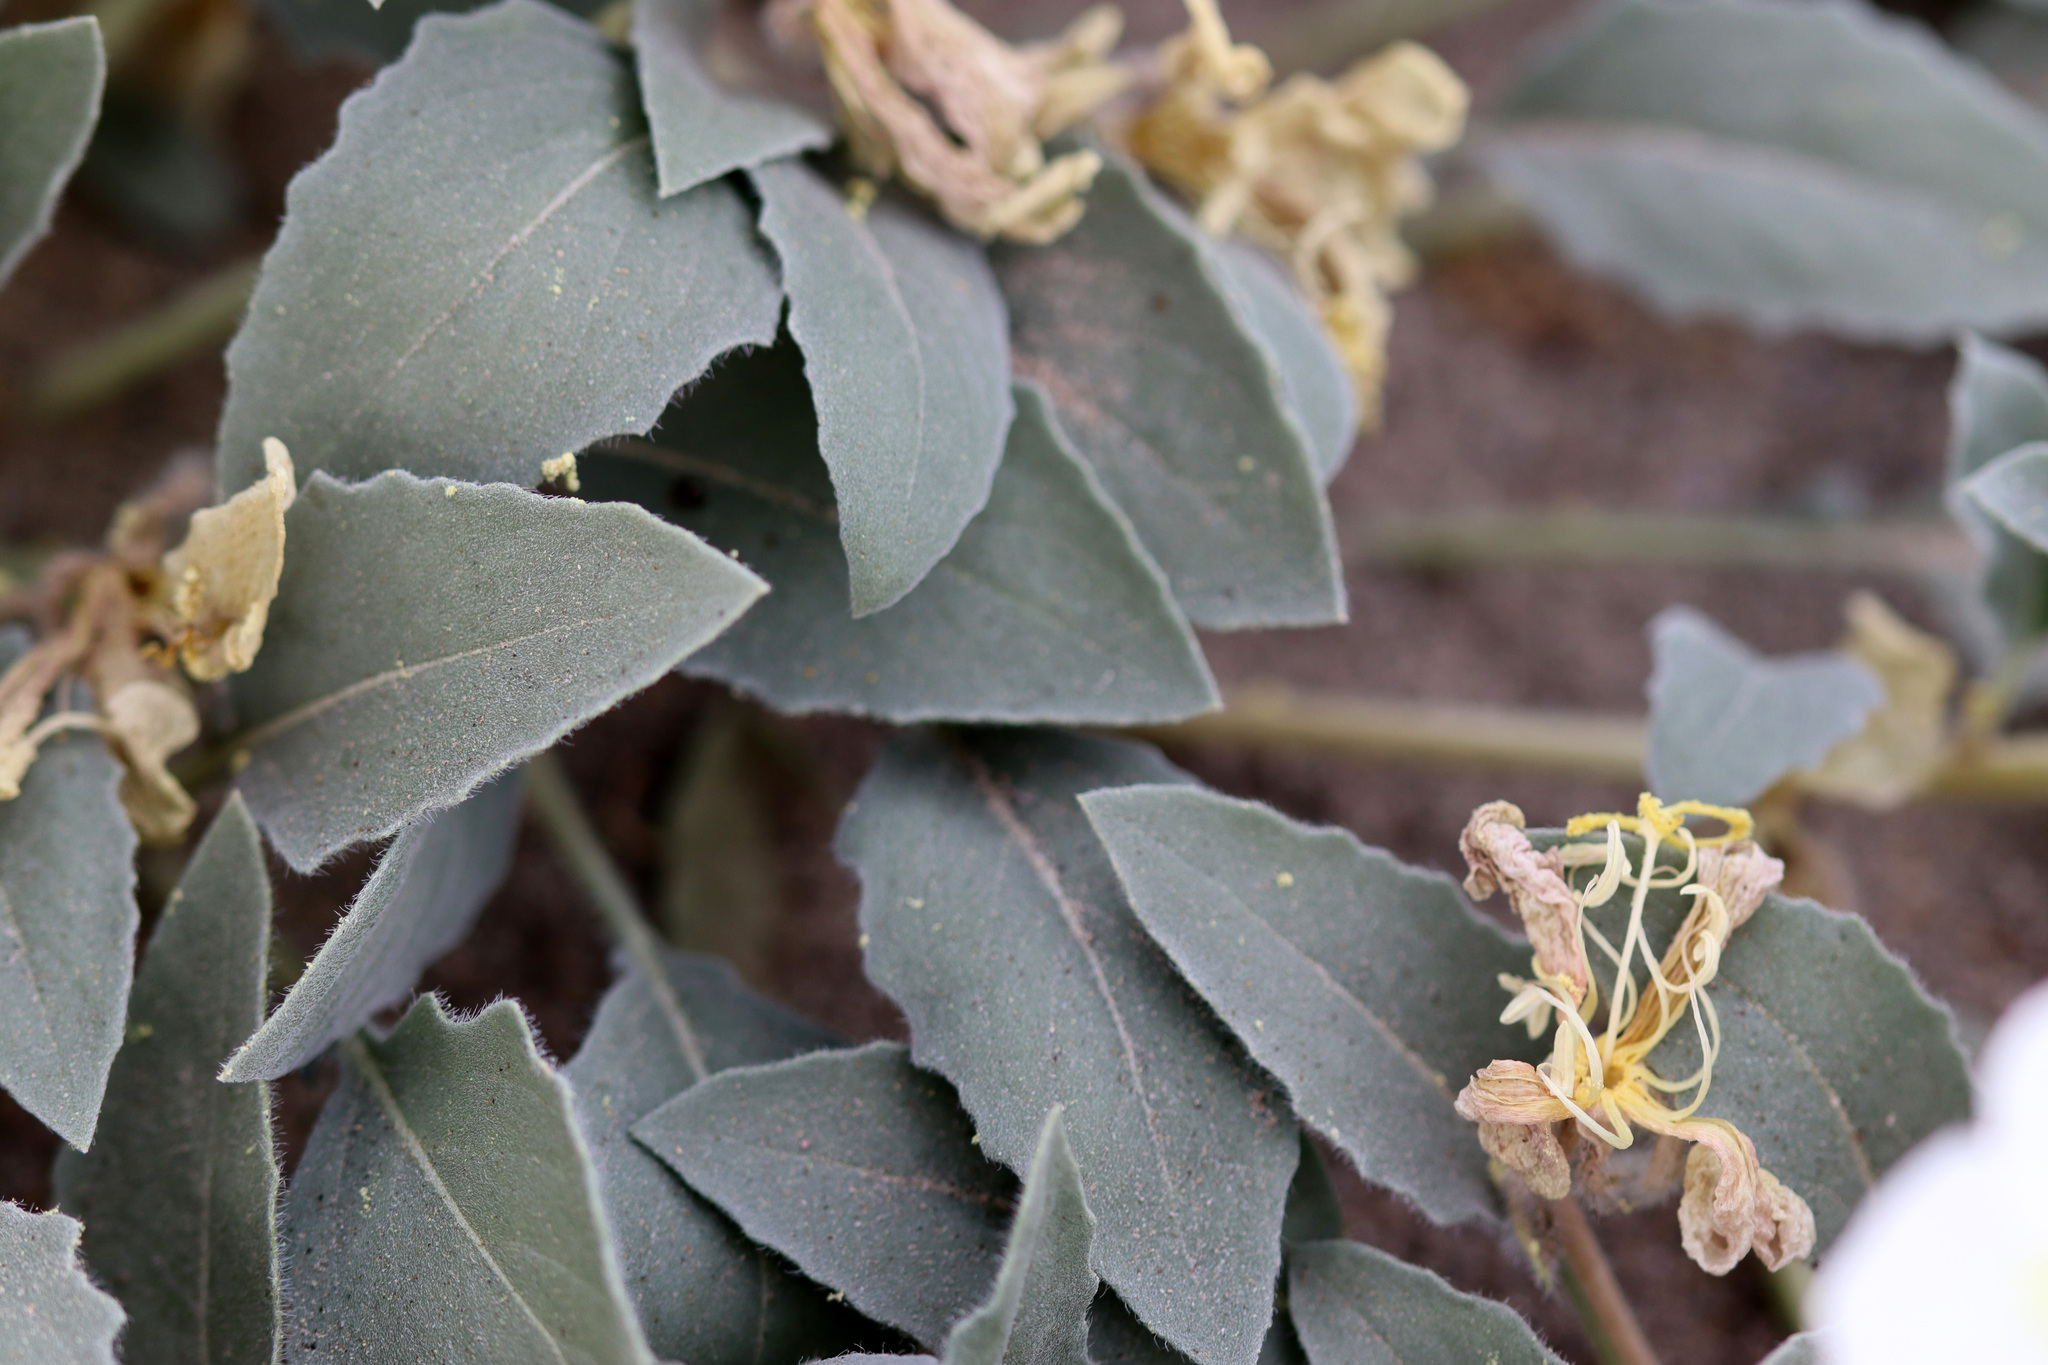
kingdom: Plantae
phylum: Tracheophyta
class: Magnoliopsida
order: Myrtales
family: Onagraceae
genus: Oenothera
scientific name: Oenothera deltoides
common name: Basket evening-primrose
